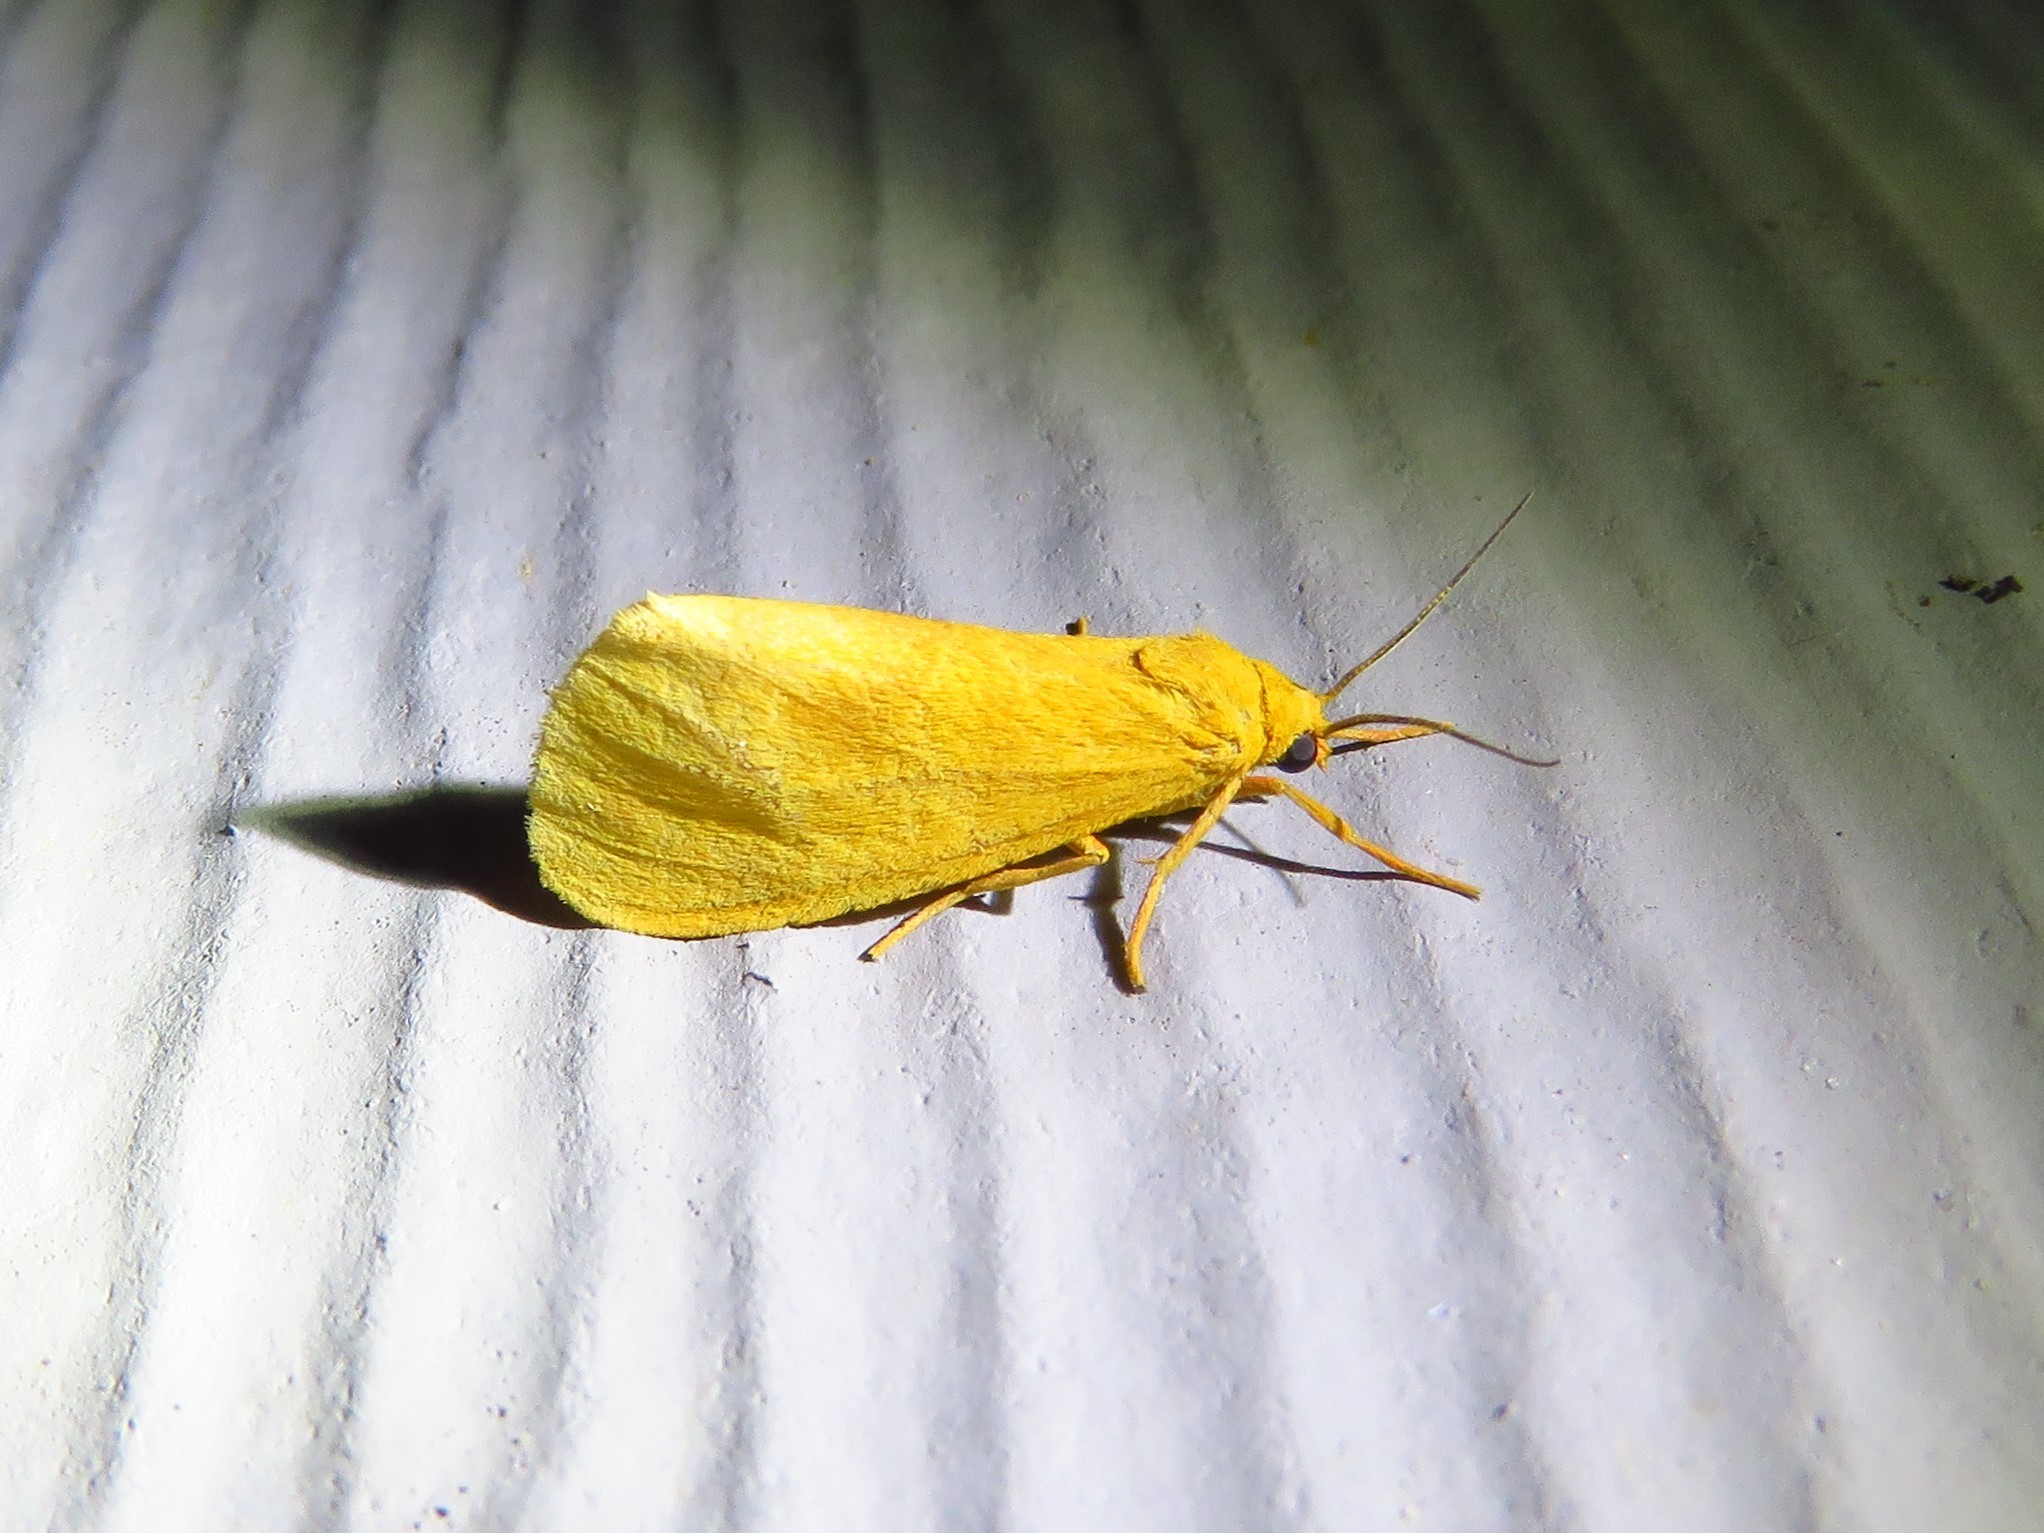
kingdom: Animalia
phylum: Arthropoda
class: Insecta
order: Lepidoptera
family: Erebidae
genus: Virbia
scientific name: Virbia aurantiaca
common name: Orange virbia moth
